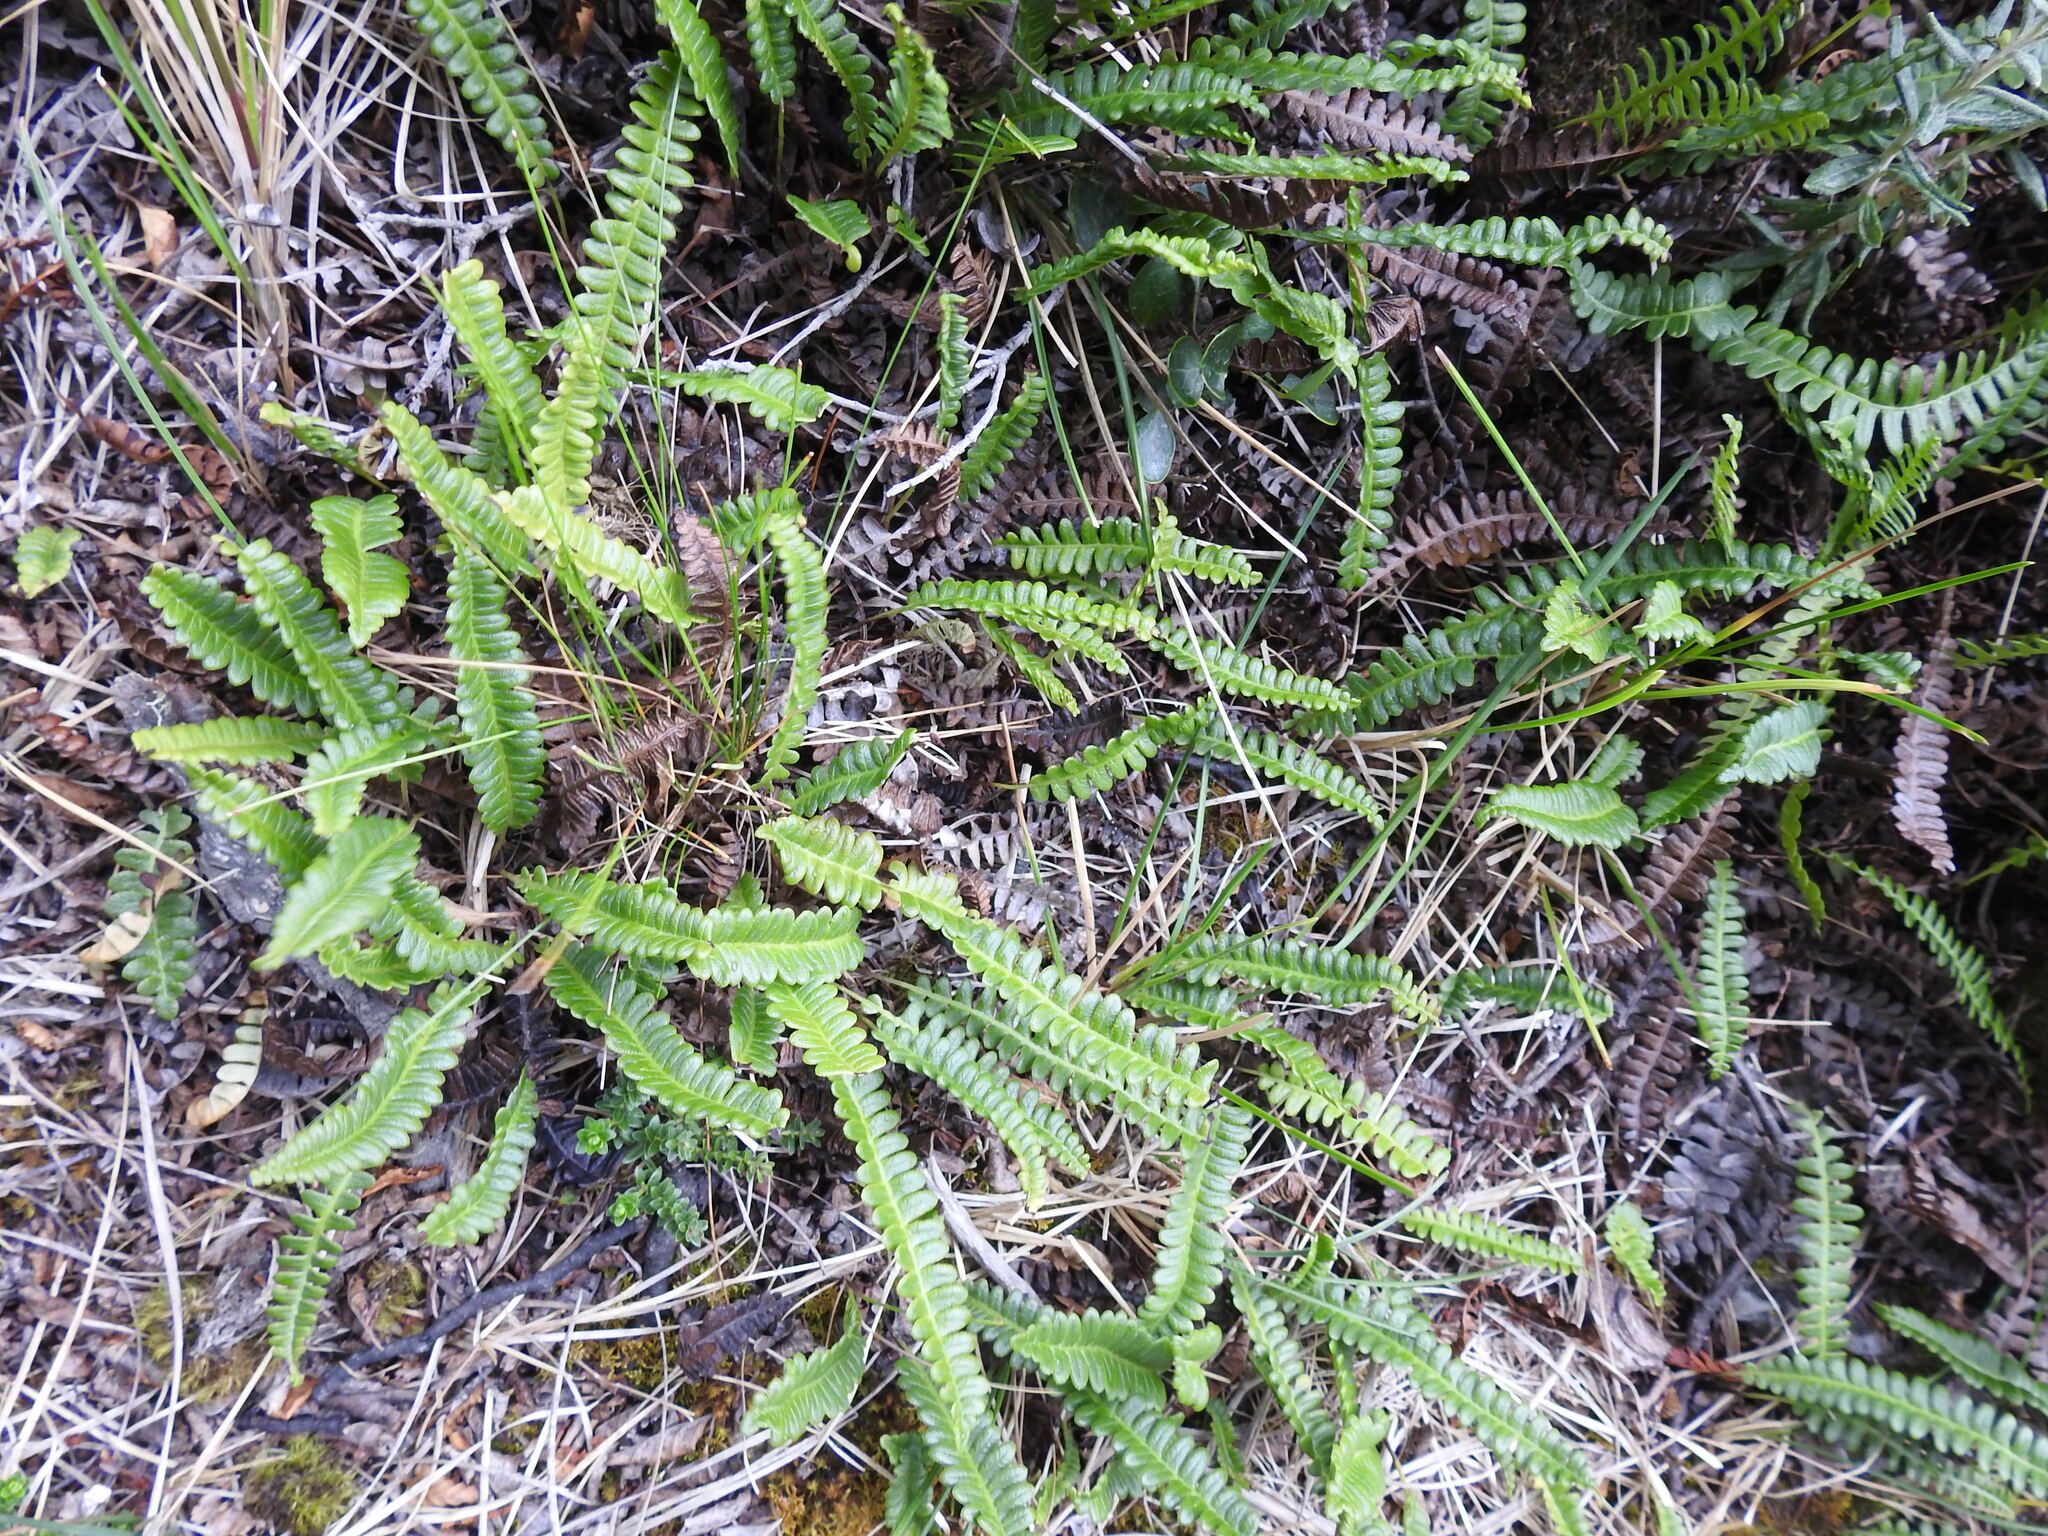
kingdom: Plantae
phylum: Tracheophyta
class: Polypodiopsida
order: Polypodiales
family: Blechnaceae
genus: Austroblechnum
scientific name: Austroblechnum penna-marina
